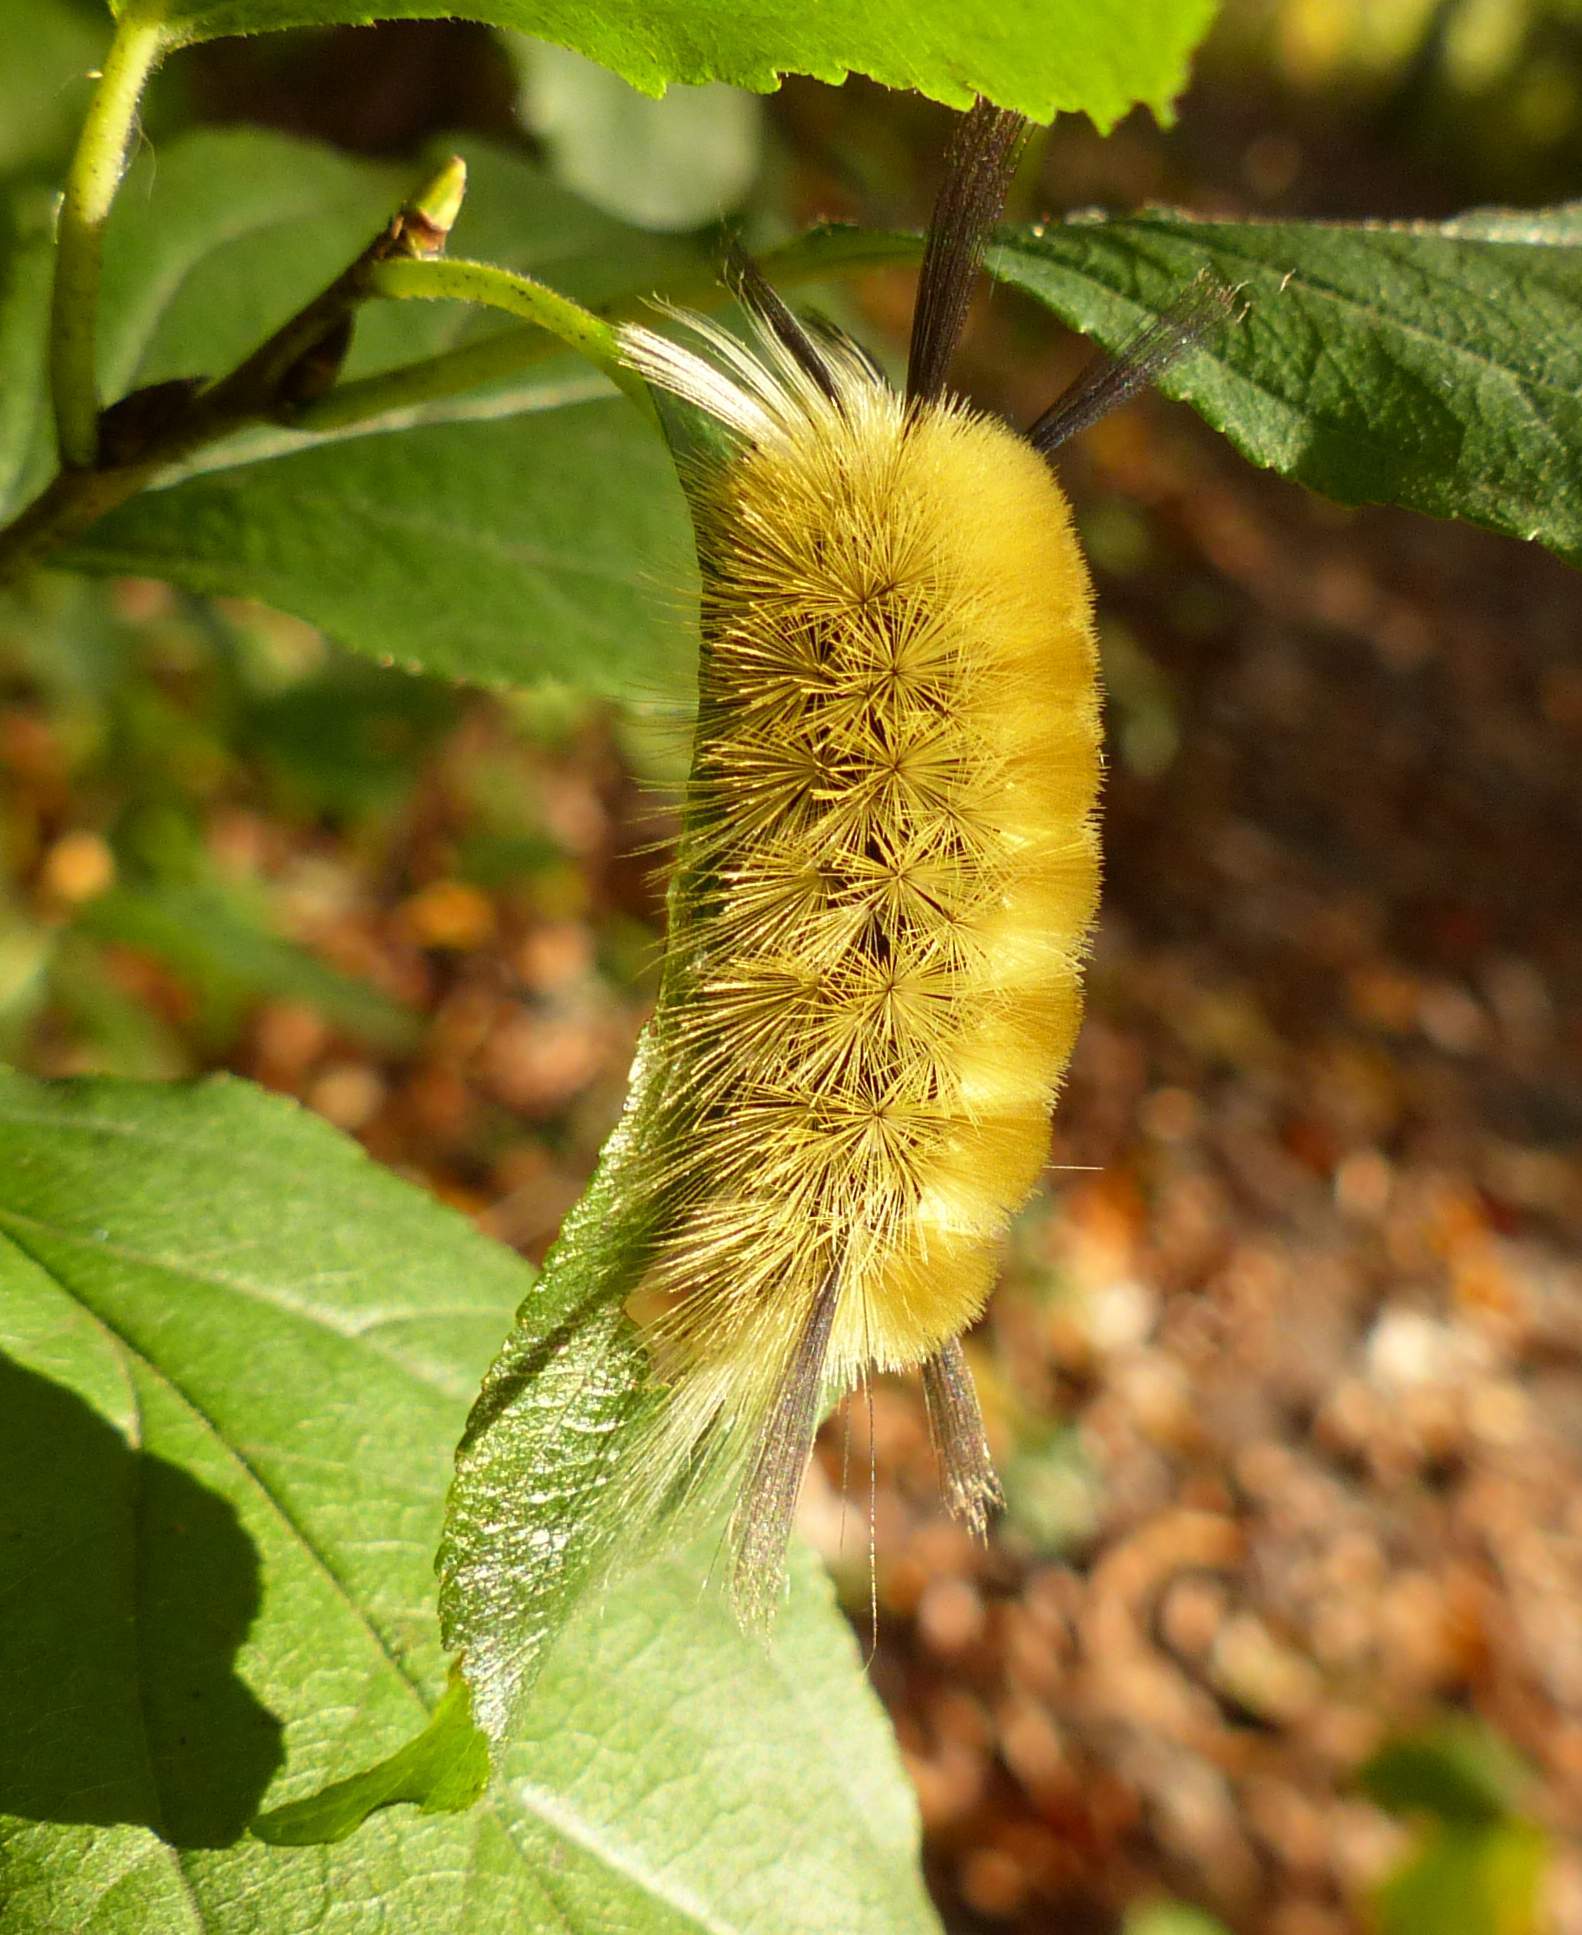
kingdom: Animalia
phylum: Arthropoda
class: Insecta
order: Lepidoptera
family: Erebidae
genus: Halysidota
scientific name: Halysidota tessellaris
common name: Banded tussock moth
